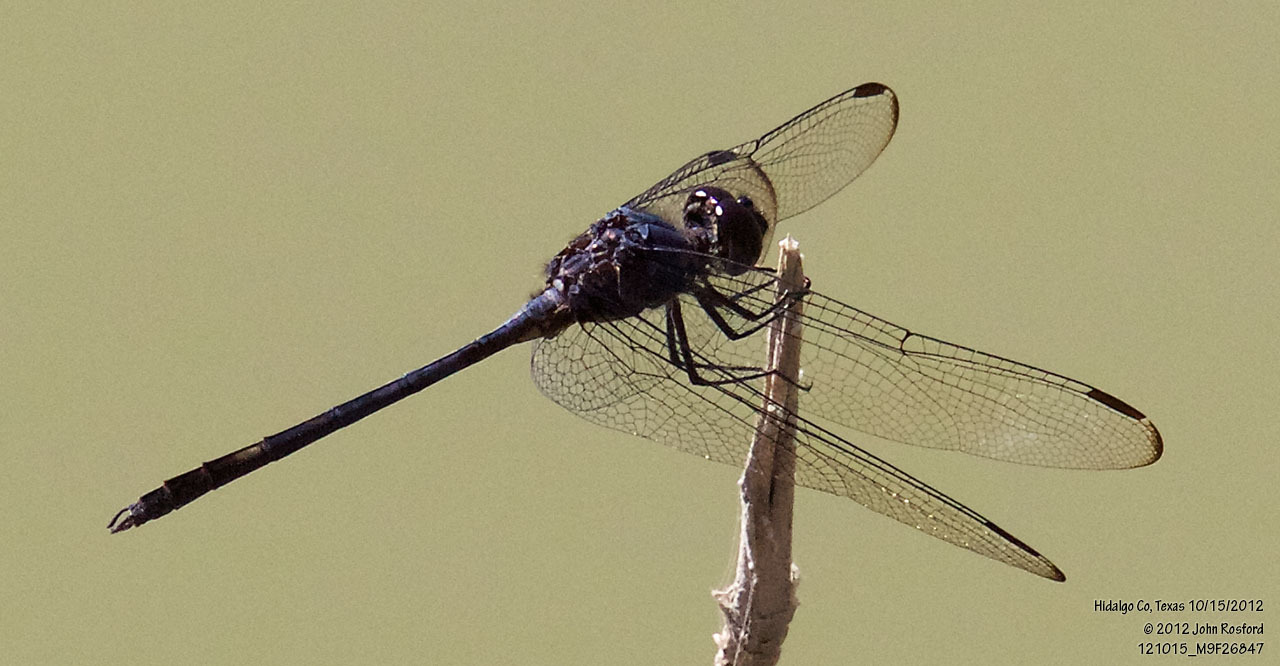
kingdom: Animalia
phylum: Arthropoda
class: Insecta
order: Odonata
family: Libellulidae
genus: Dythemis
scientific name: Dythemis nigrescens
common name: Black setwing
